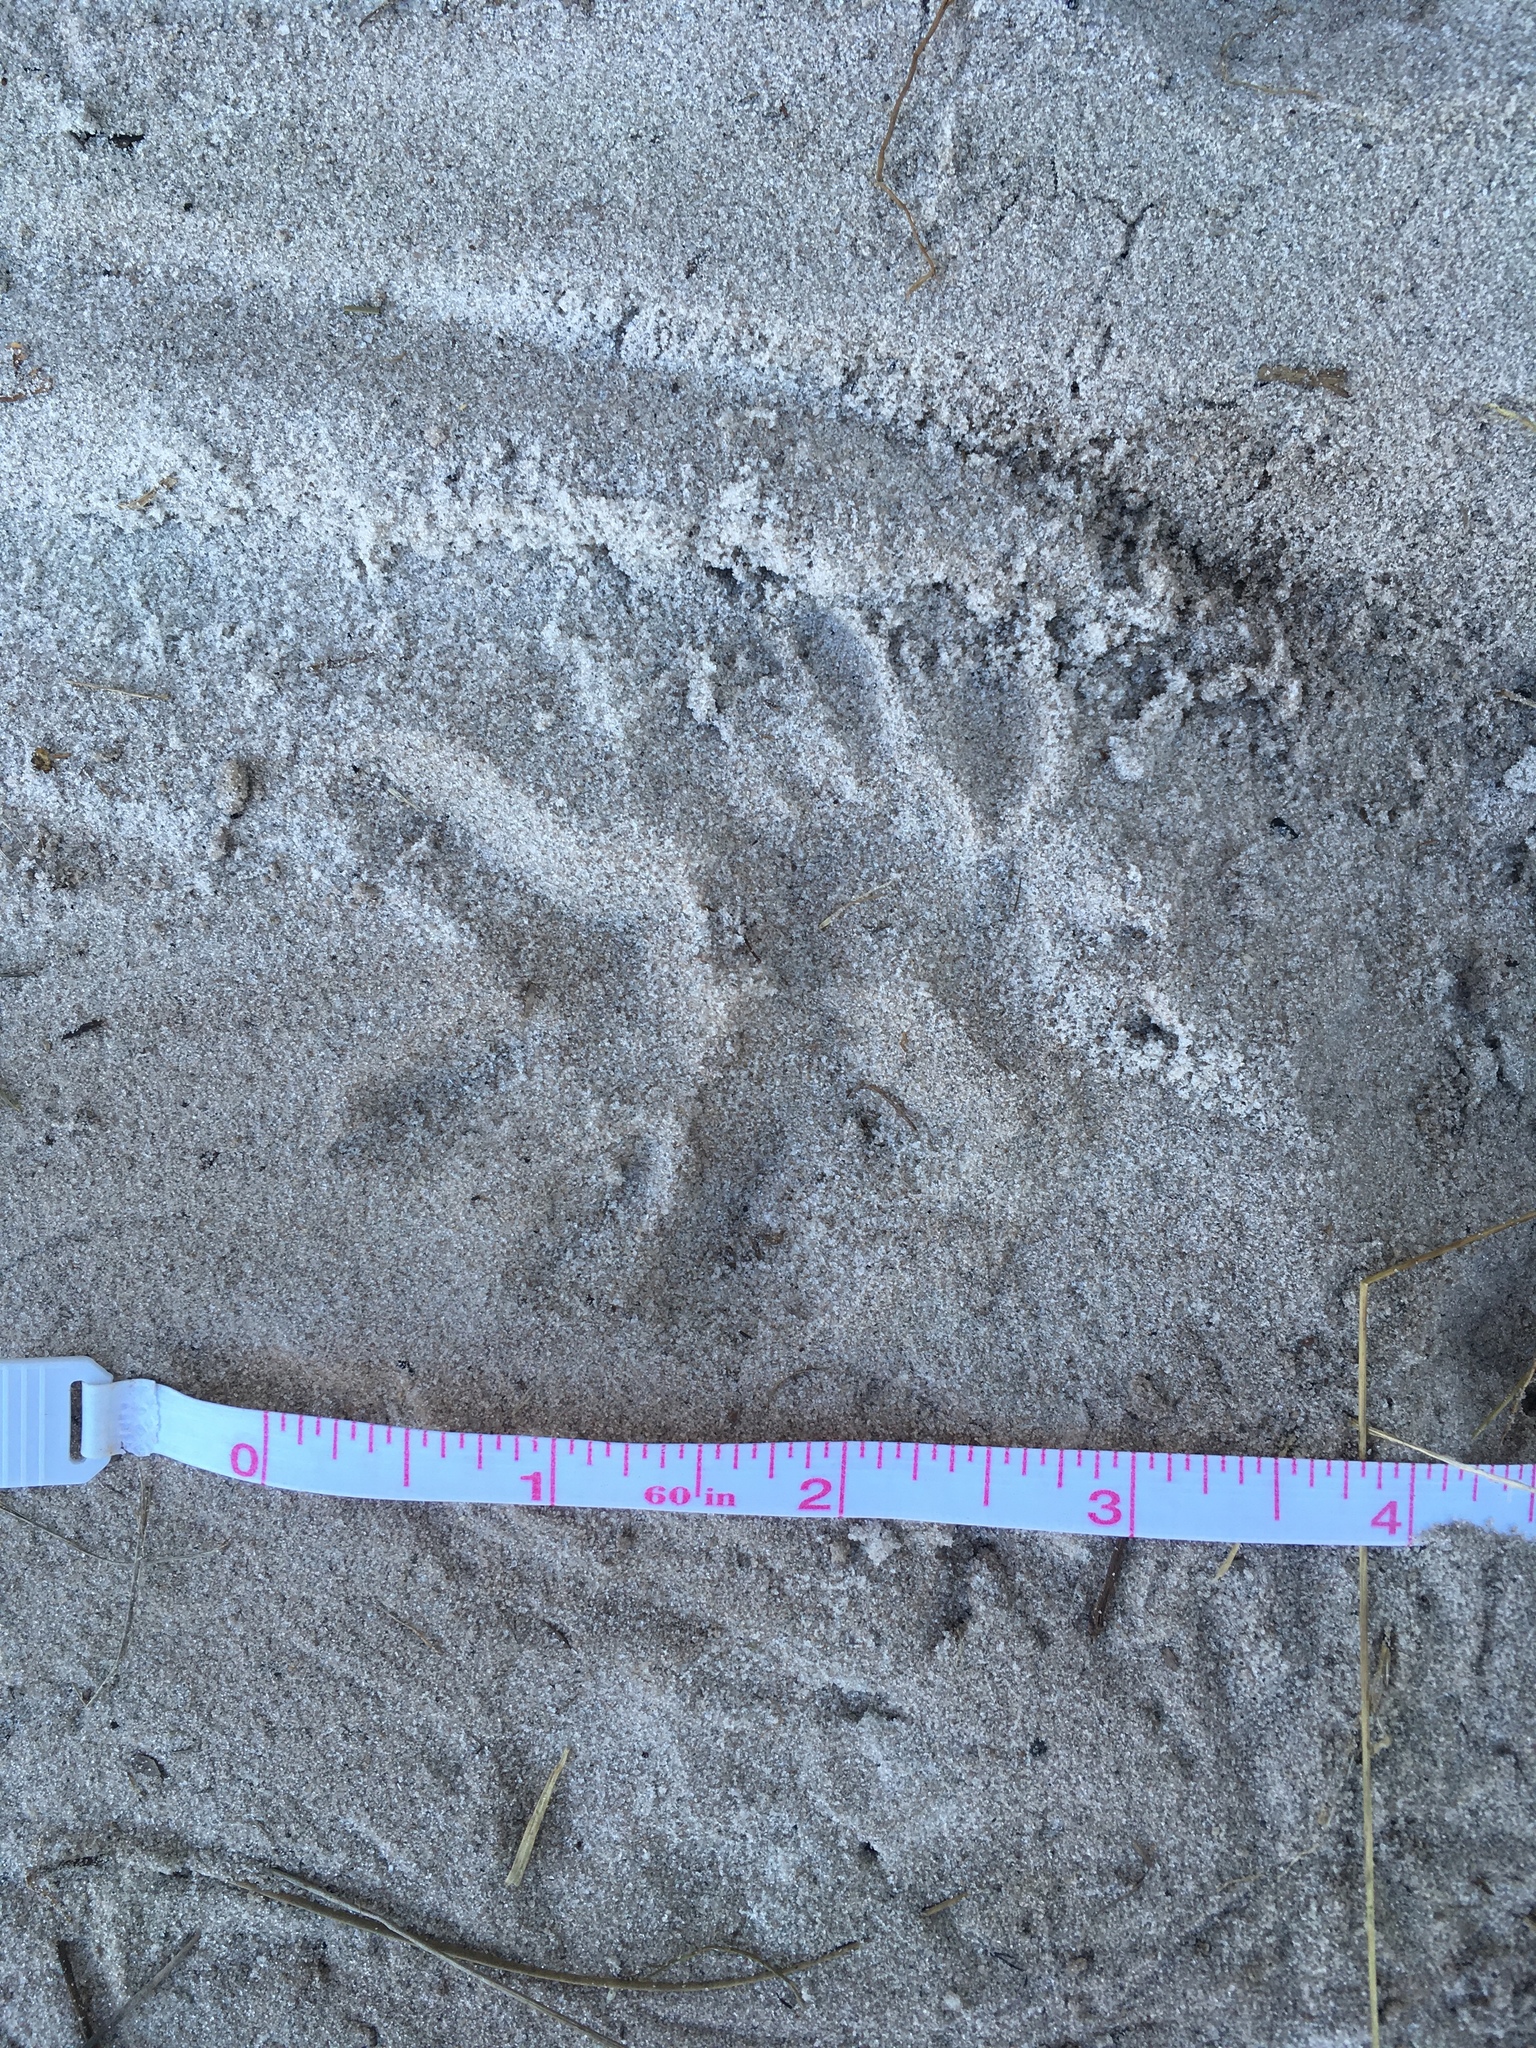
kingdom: Animalia
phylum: Chordata
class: Mammalia
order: Didelphimorphia
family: Didelphidae
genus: Didelphis
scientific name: Didelphis virginiana
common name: Virginia opossum
